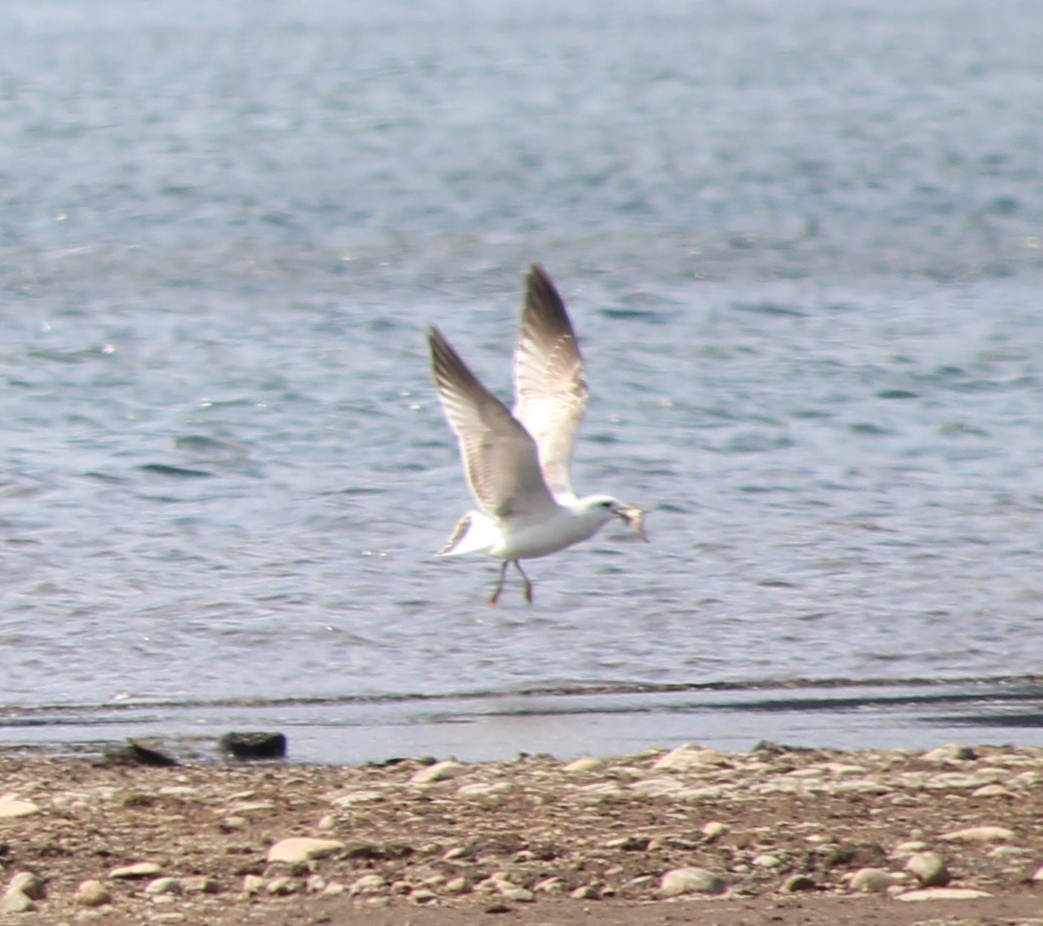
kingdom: Animalia
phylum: Chordata
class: Aves
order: Charadriiformes
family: Laridae
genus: Larus
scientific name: Larus canus
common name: Mew gull
